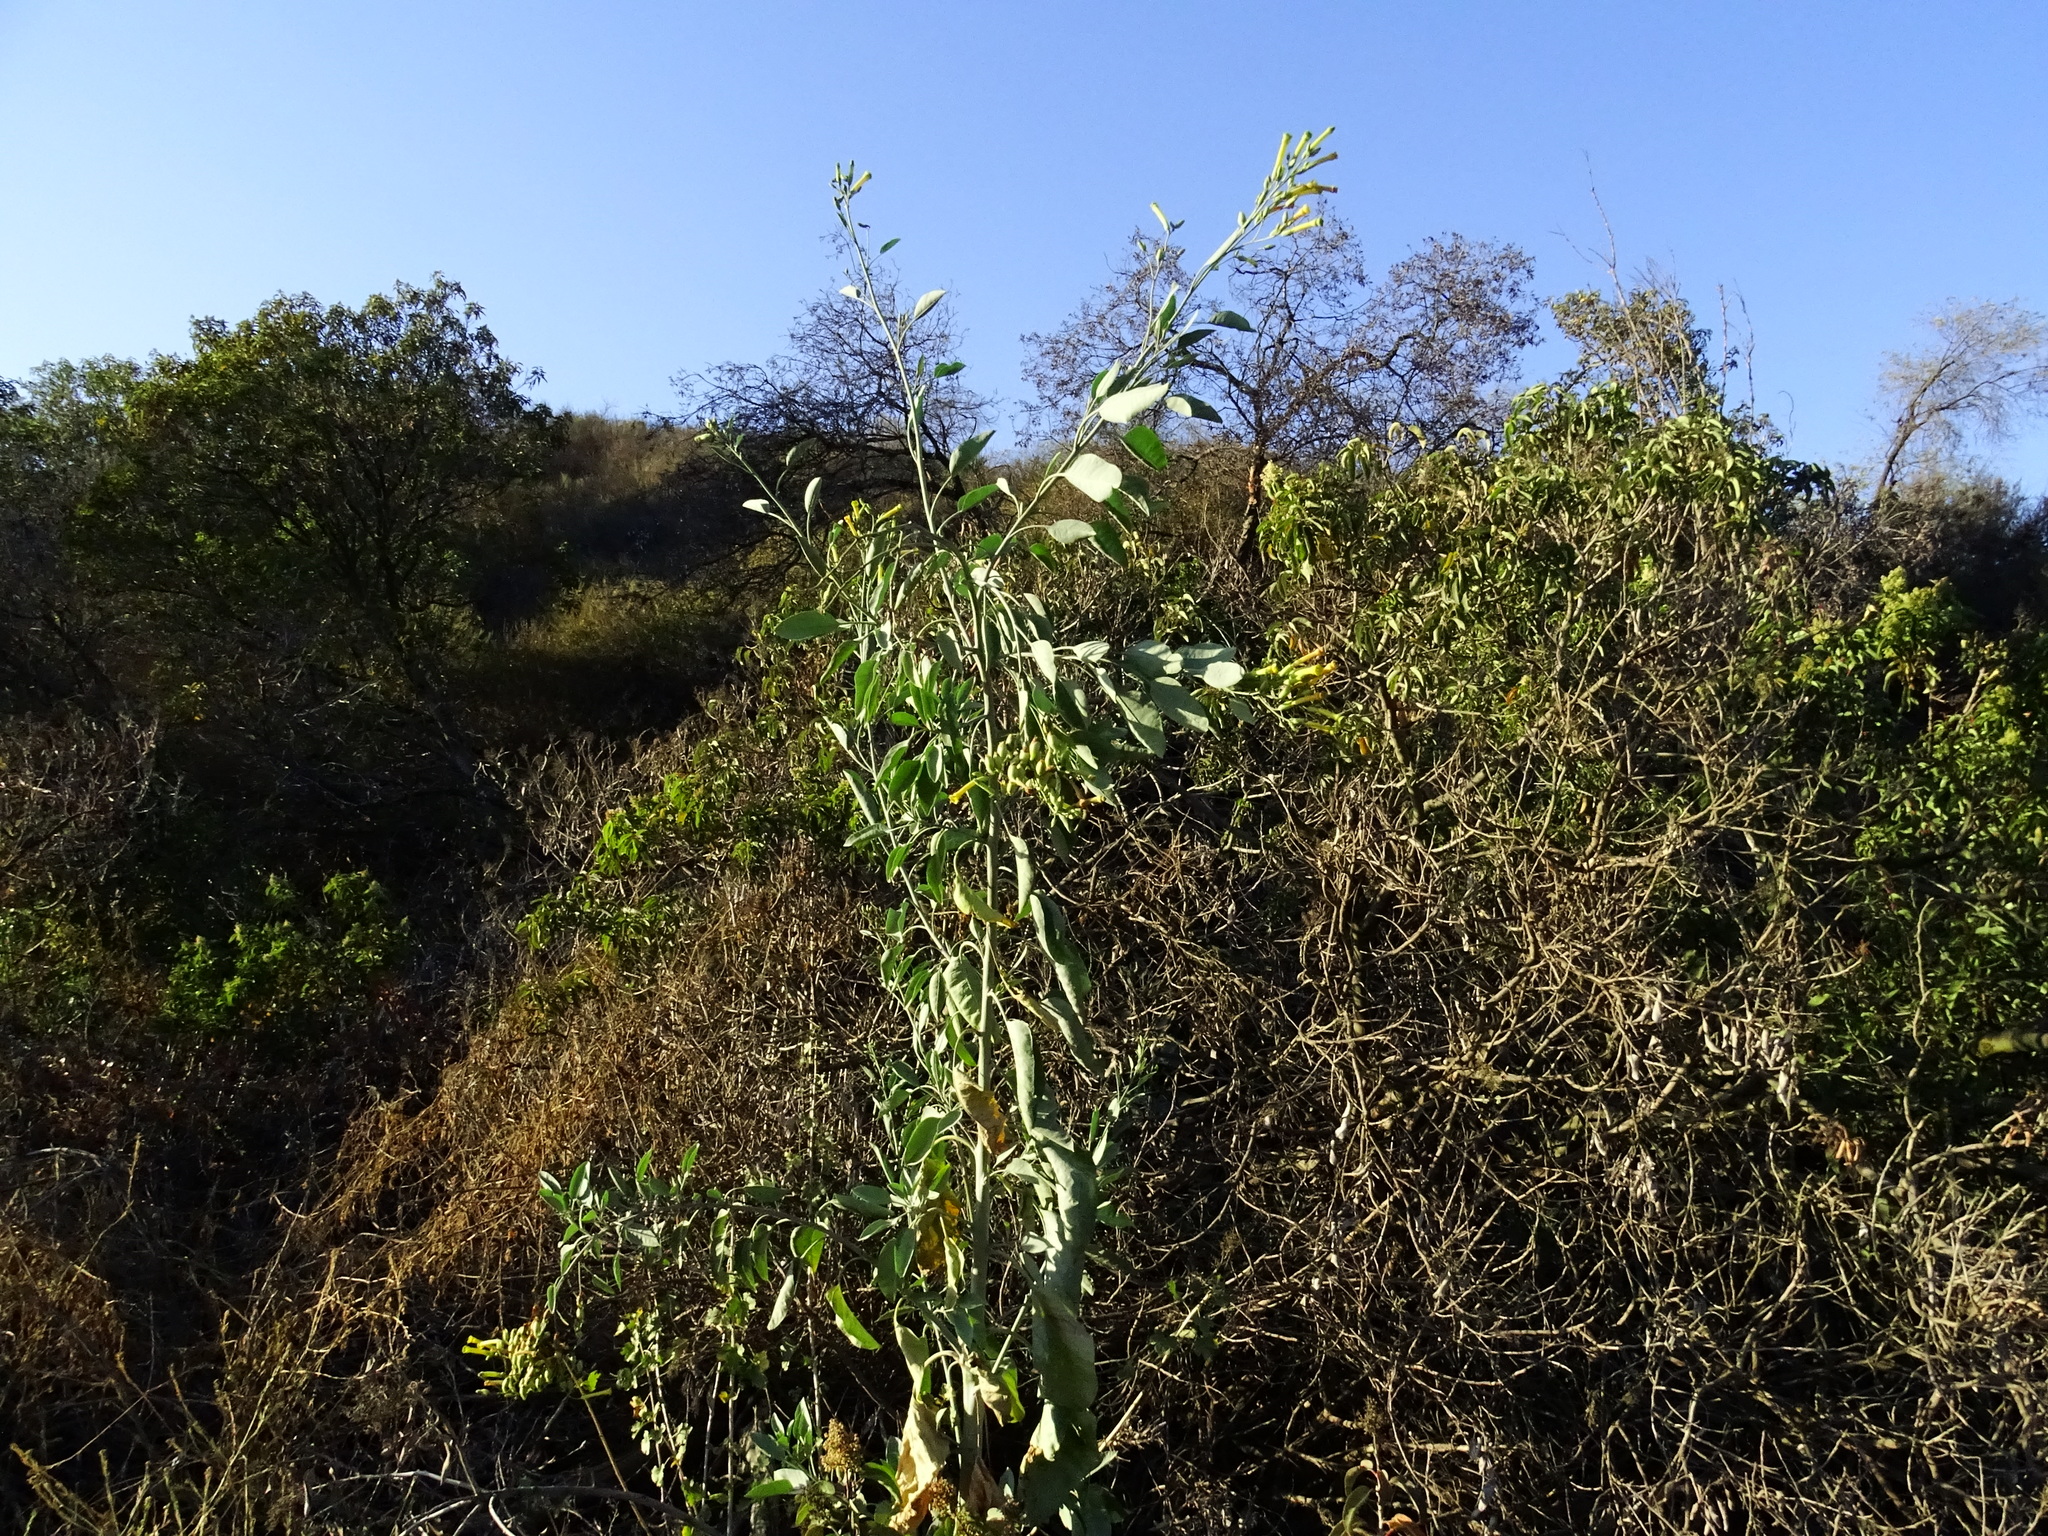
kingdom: Plantae
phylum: Tracheophyta
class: Magnoliopsida
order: Solanales
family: Solanaceae
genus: Nicotiana
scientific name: Nicotiana glauca
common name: Tree tobacco
